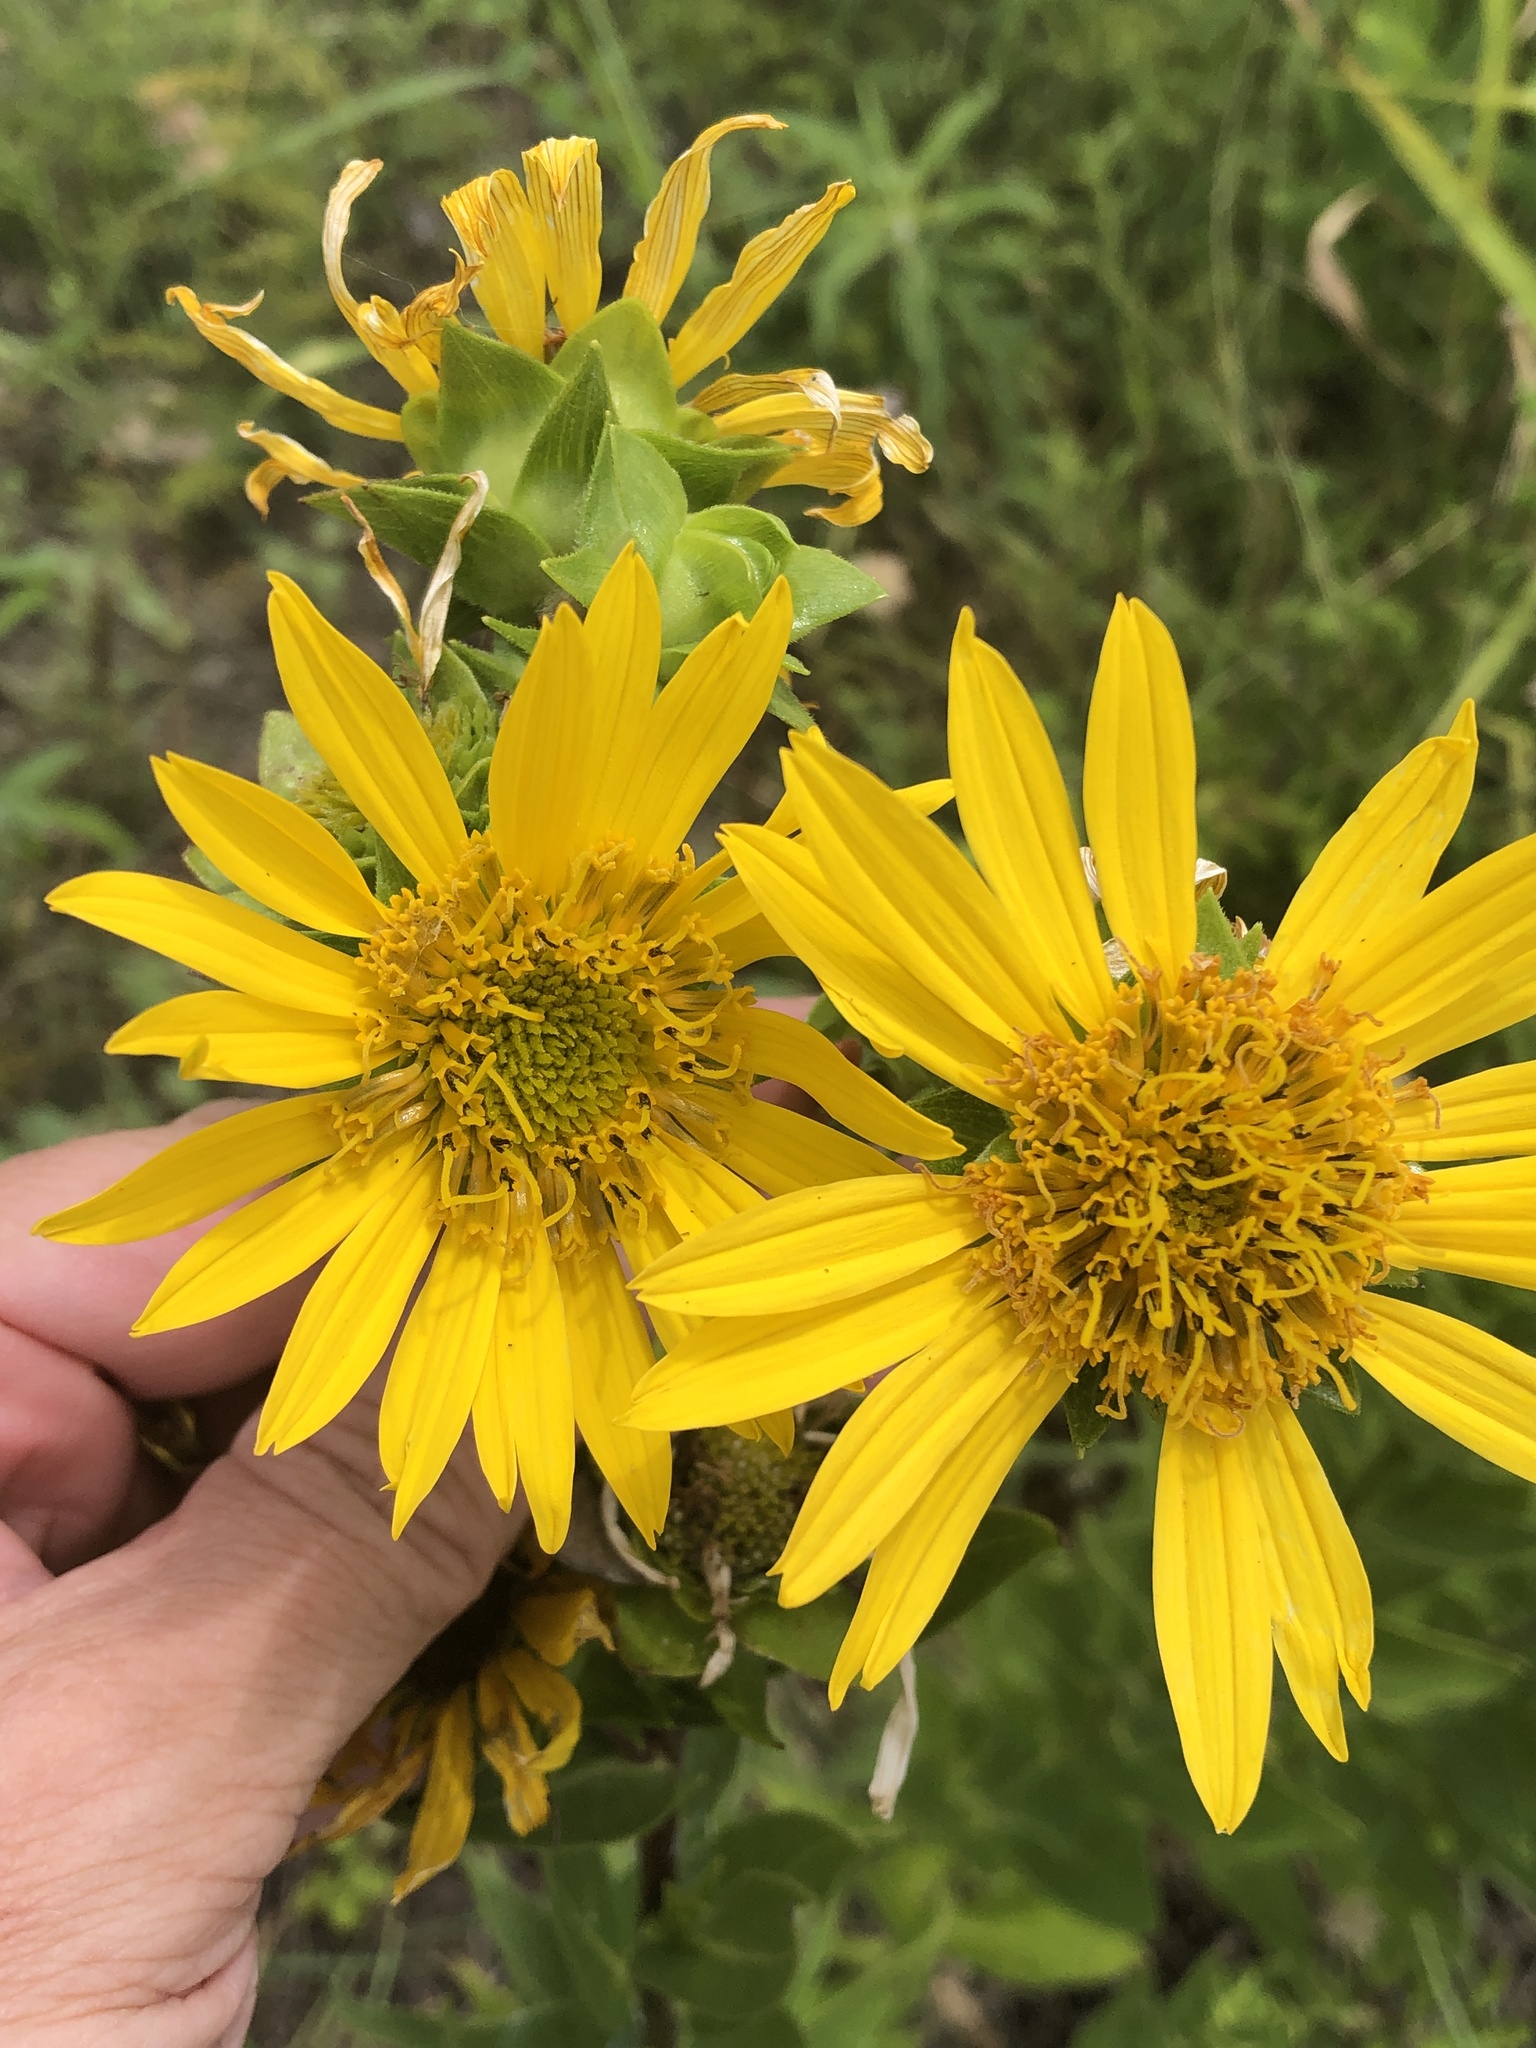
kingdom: Plantae
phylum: Tracheophyta
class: Magnoliopsida
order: Asterales
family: Asteraceae
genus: Silphium
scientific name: Silphium radula
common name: Roughleaf rosinweed
